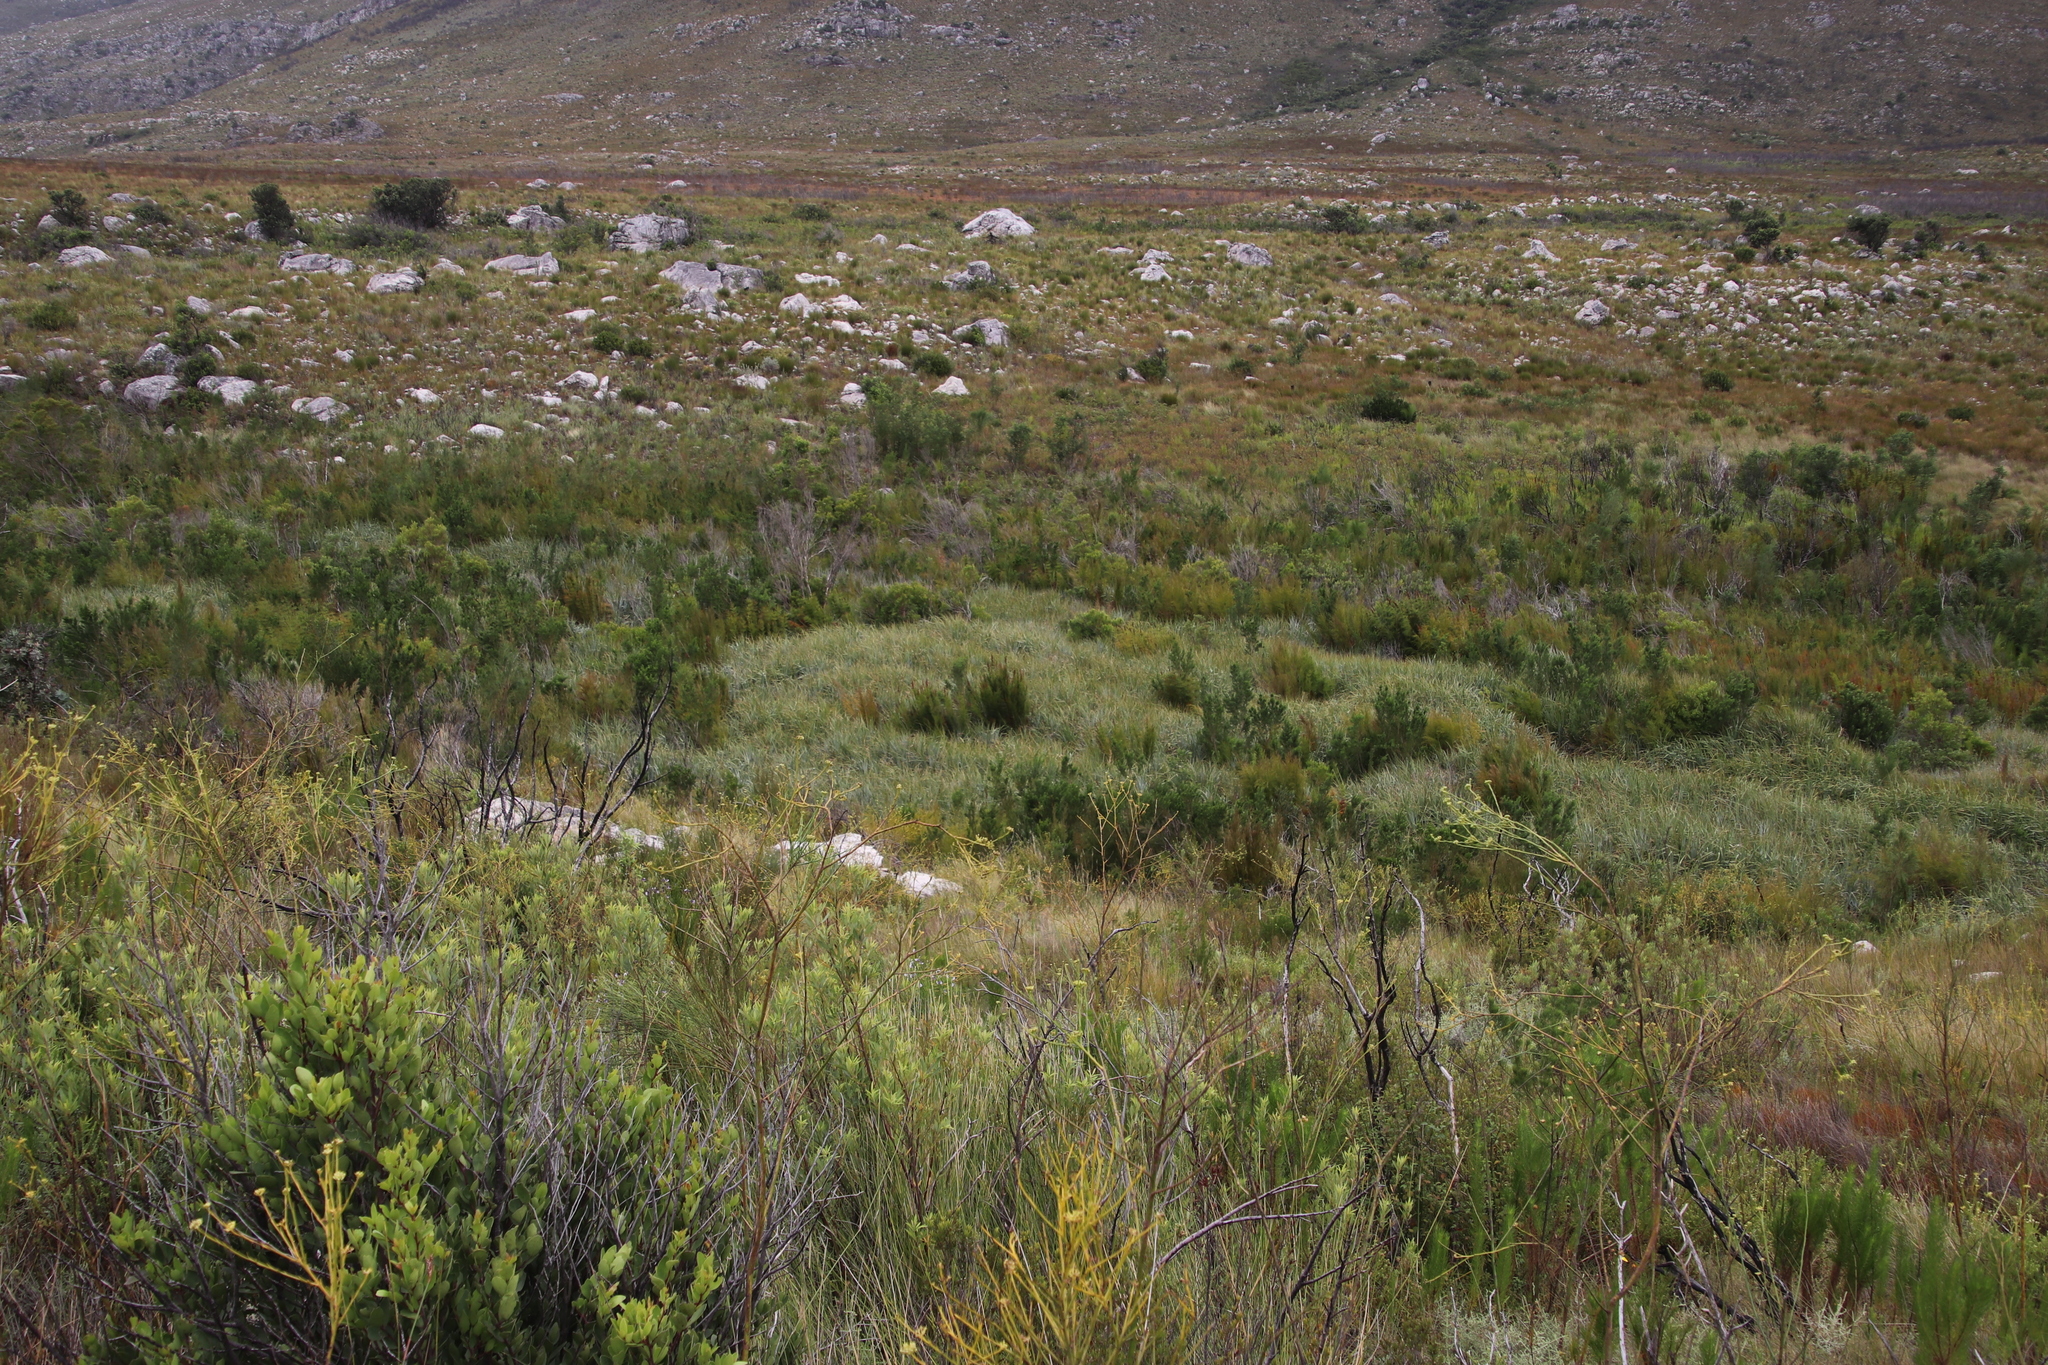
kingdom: Plantae
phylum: Tracheophyta
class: Liliopsida
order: Poales
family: Thurniaceae
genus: Prionium
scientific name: Prionium serratum
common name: Palmiet
